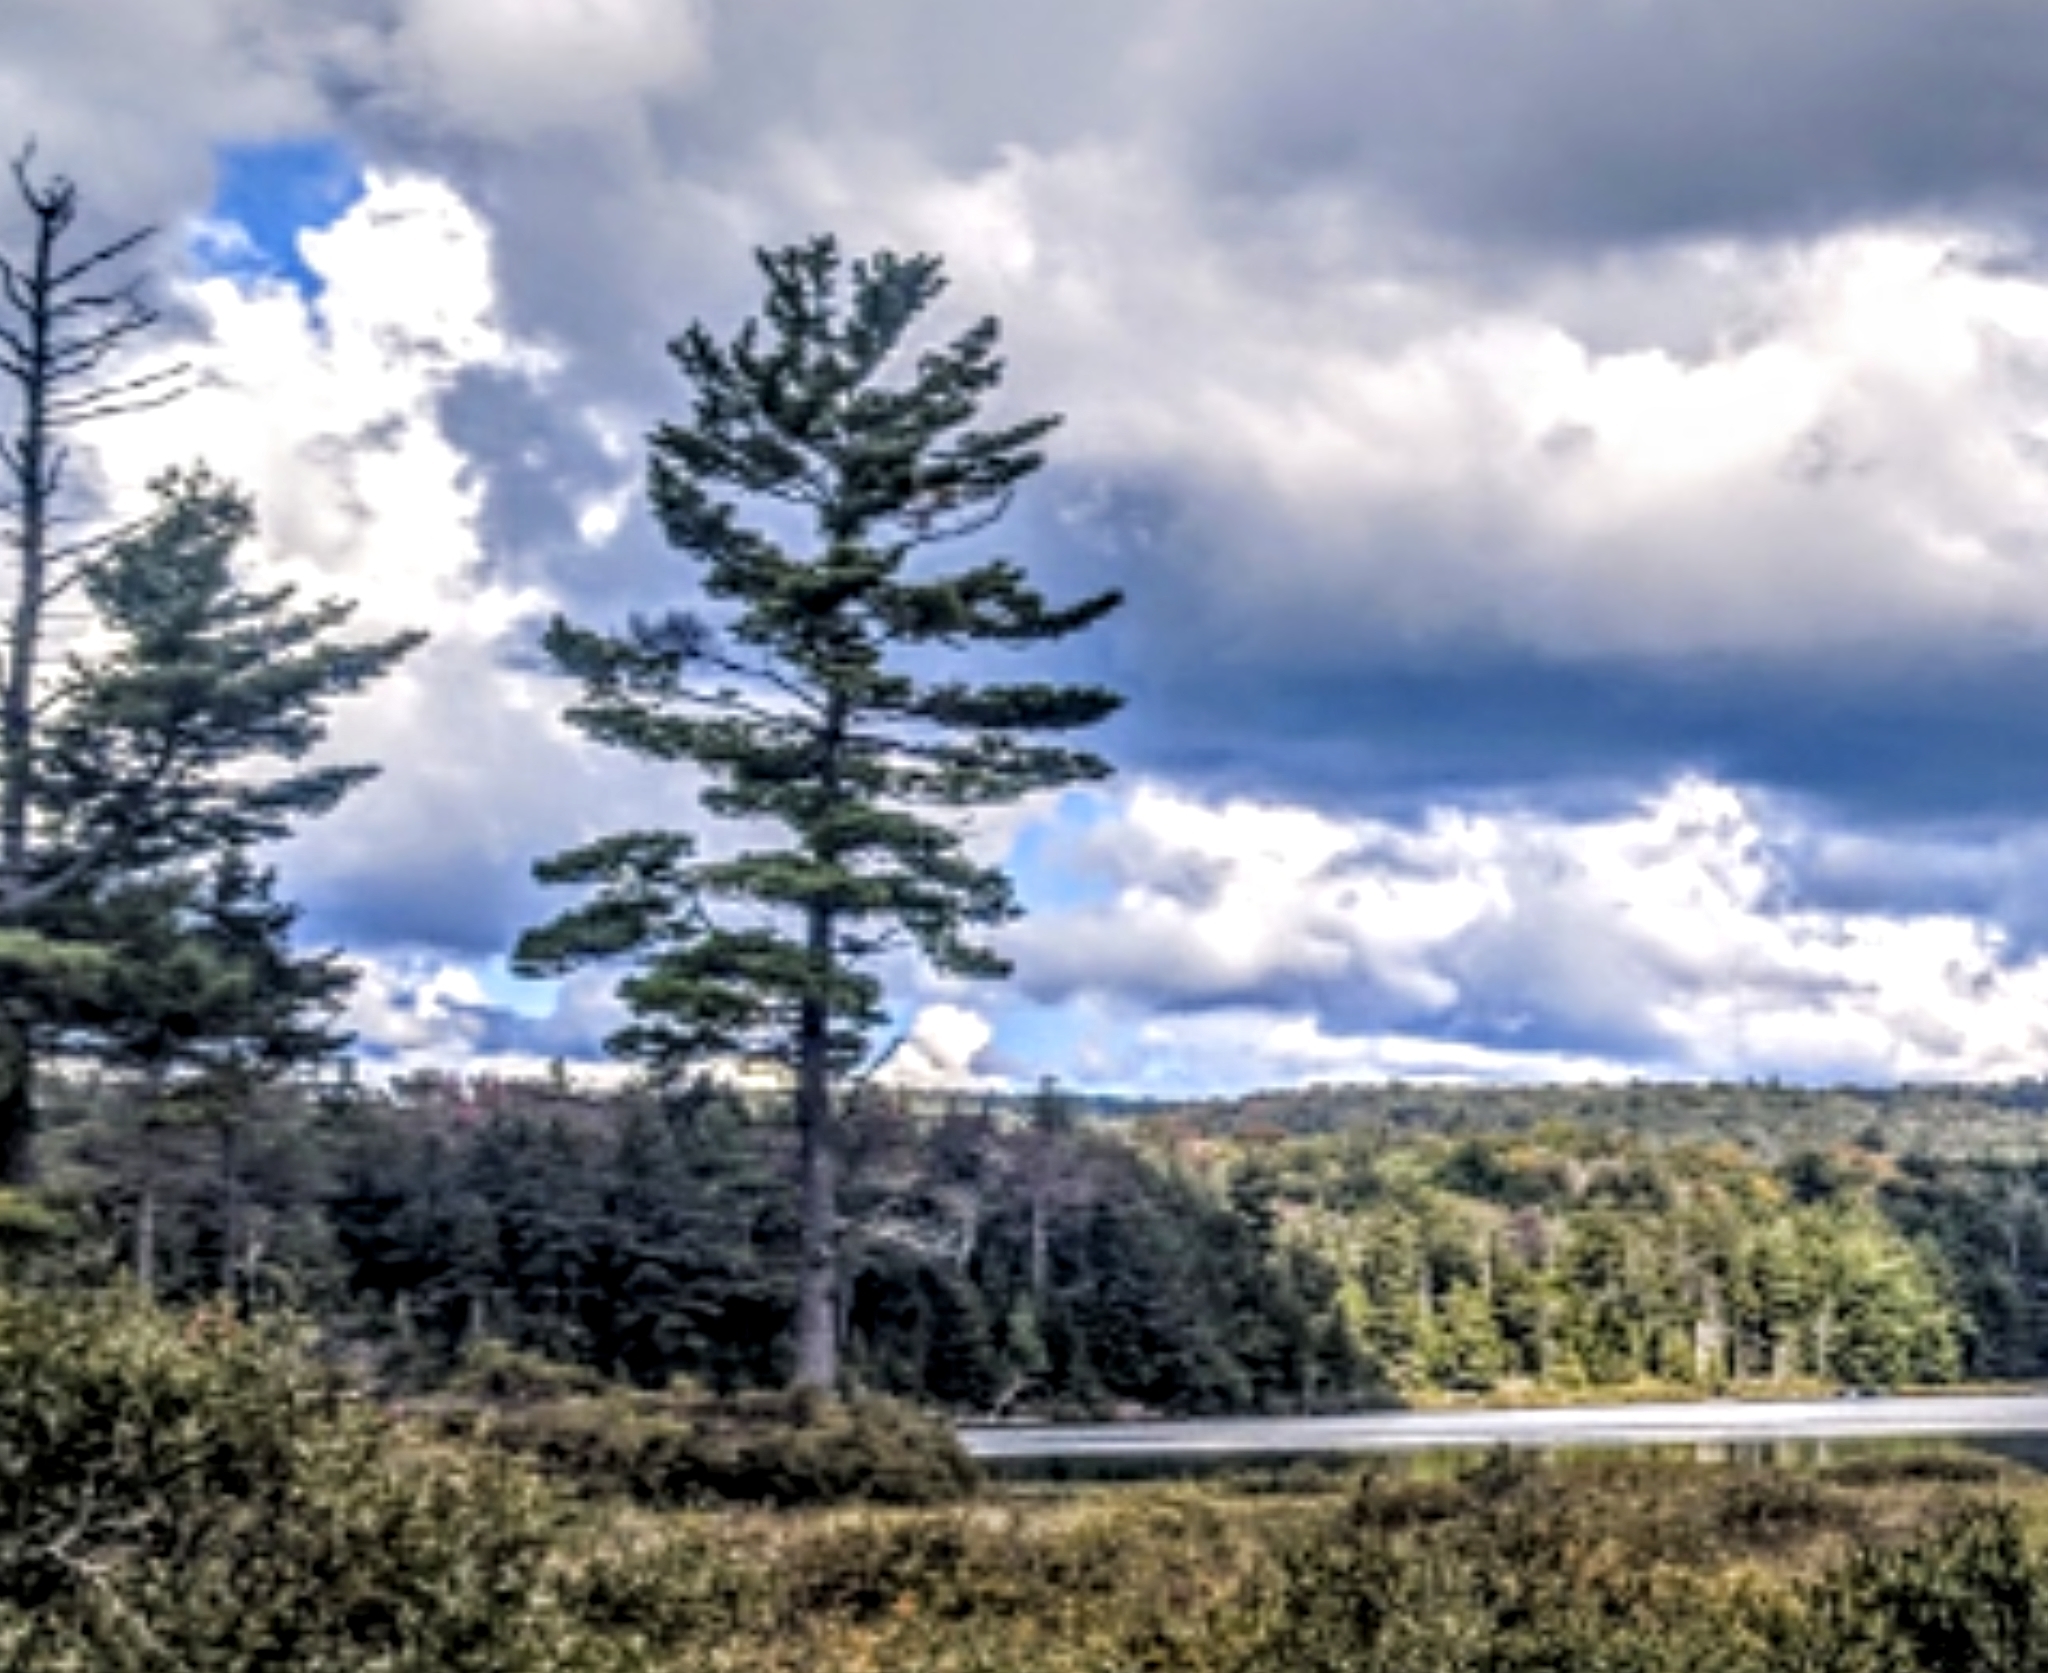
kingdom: Plantae
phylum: Tracheophyta
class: Pinopsida
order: Pinales
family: Pinaceae
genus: Pinus
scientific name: Pinus strobus
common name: Weymouth pine
